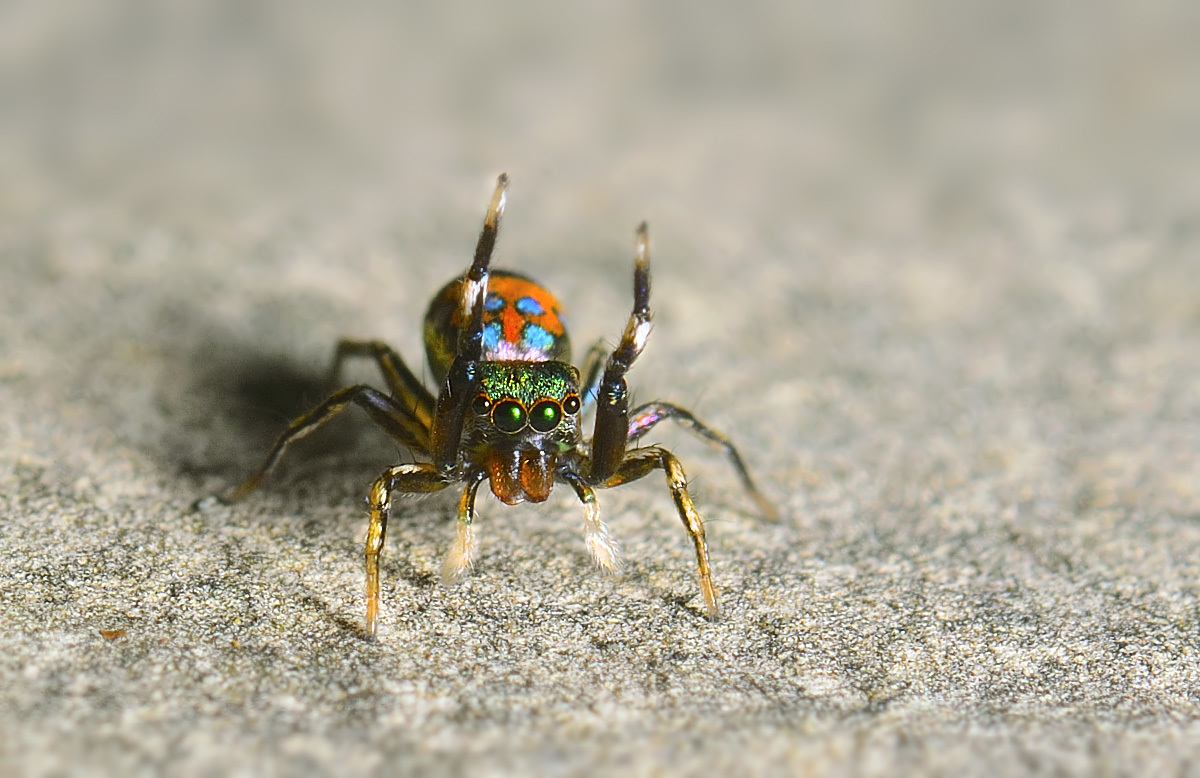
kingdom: Animalia
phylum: Arthropoda
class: Arachnida
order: Araneae
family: Salticidae
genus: Siler
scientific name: Siler semiglaucus
